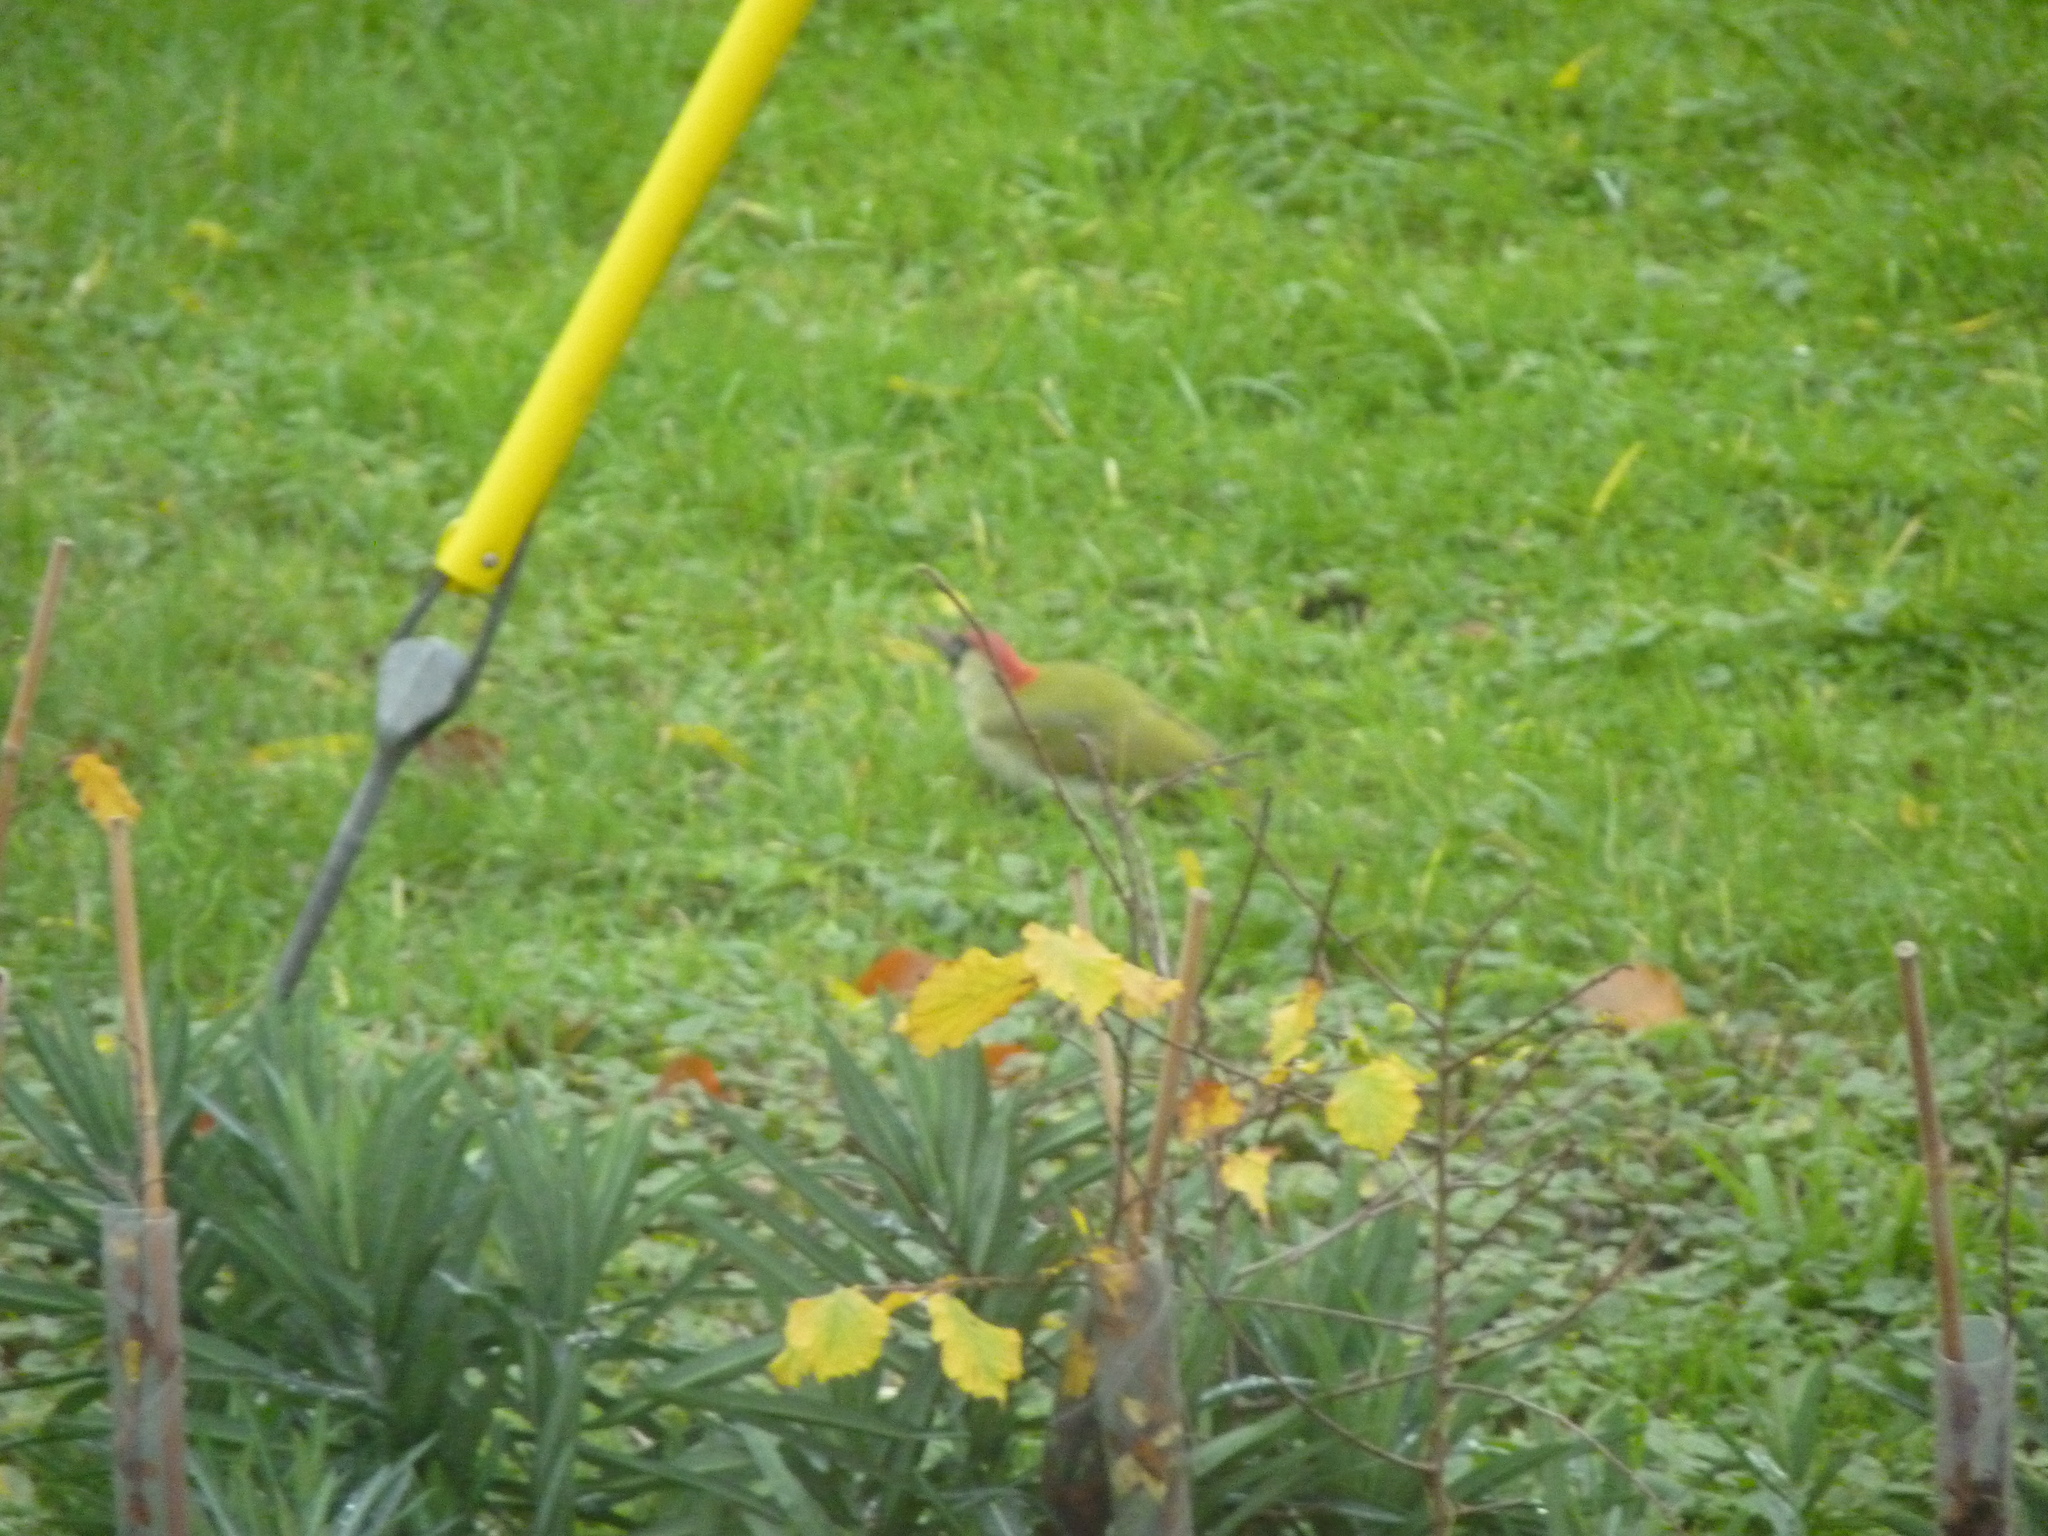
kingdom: Animalia
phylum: Chordata
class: Aves
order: Piciformes
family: Picidae
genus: Picus
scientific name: Picus viridis
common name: European green woodpecker
